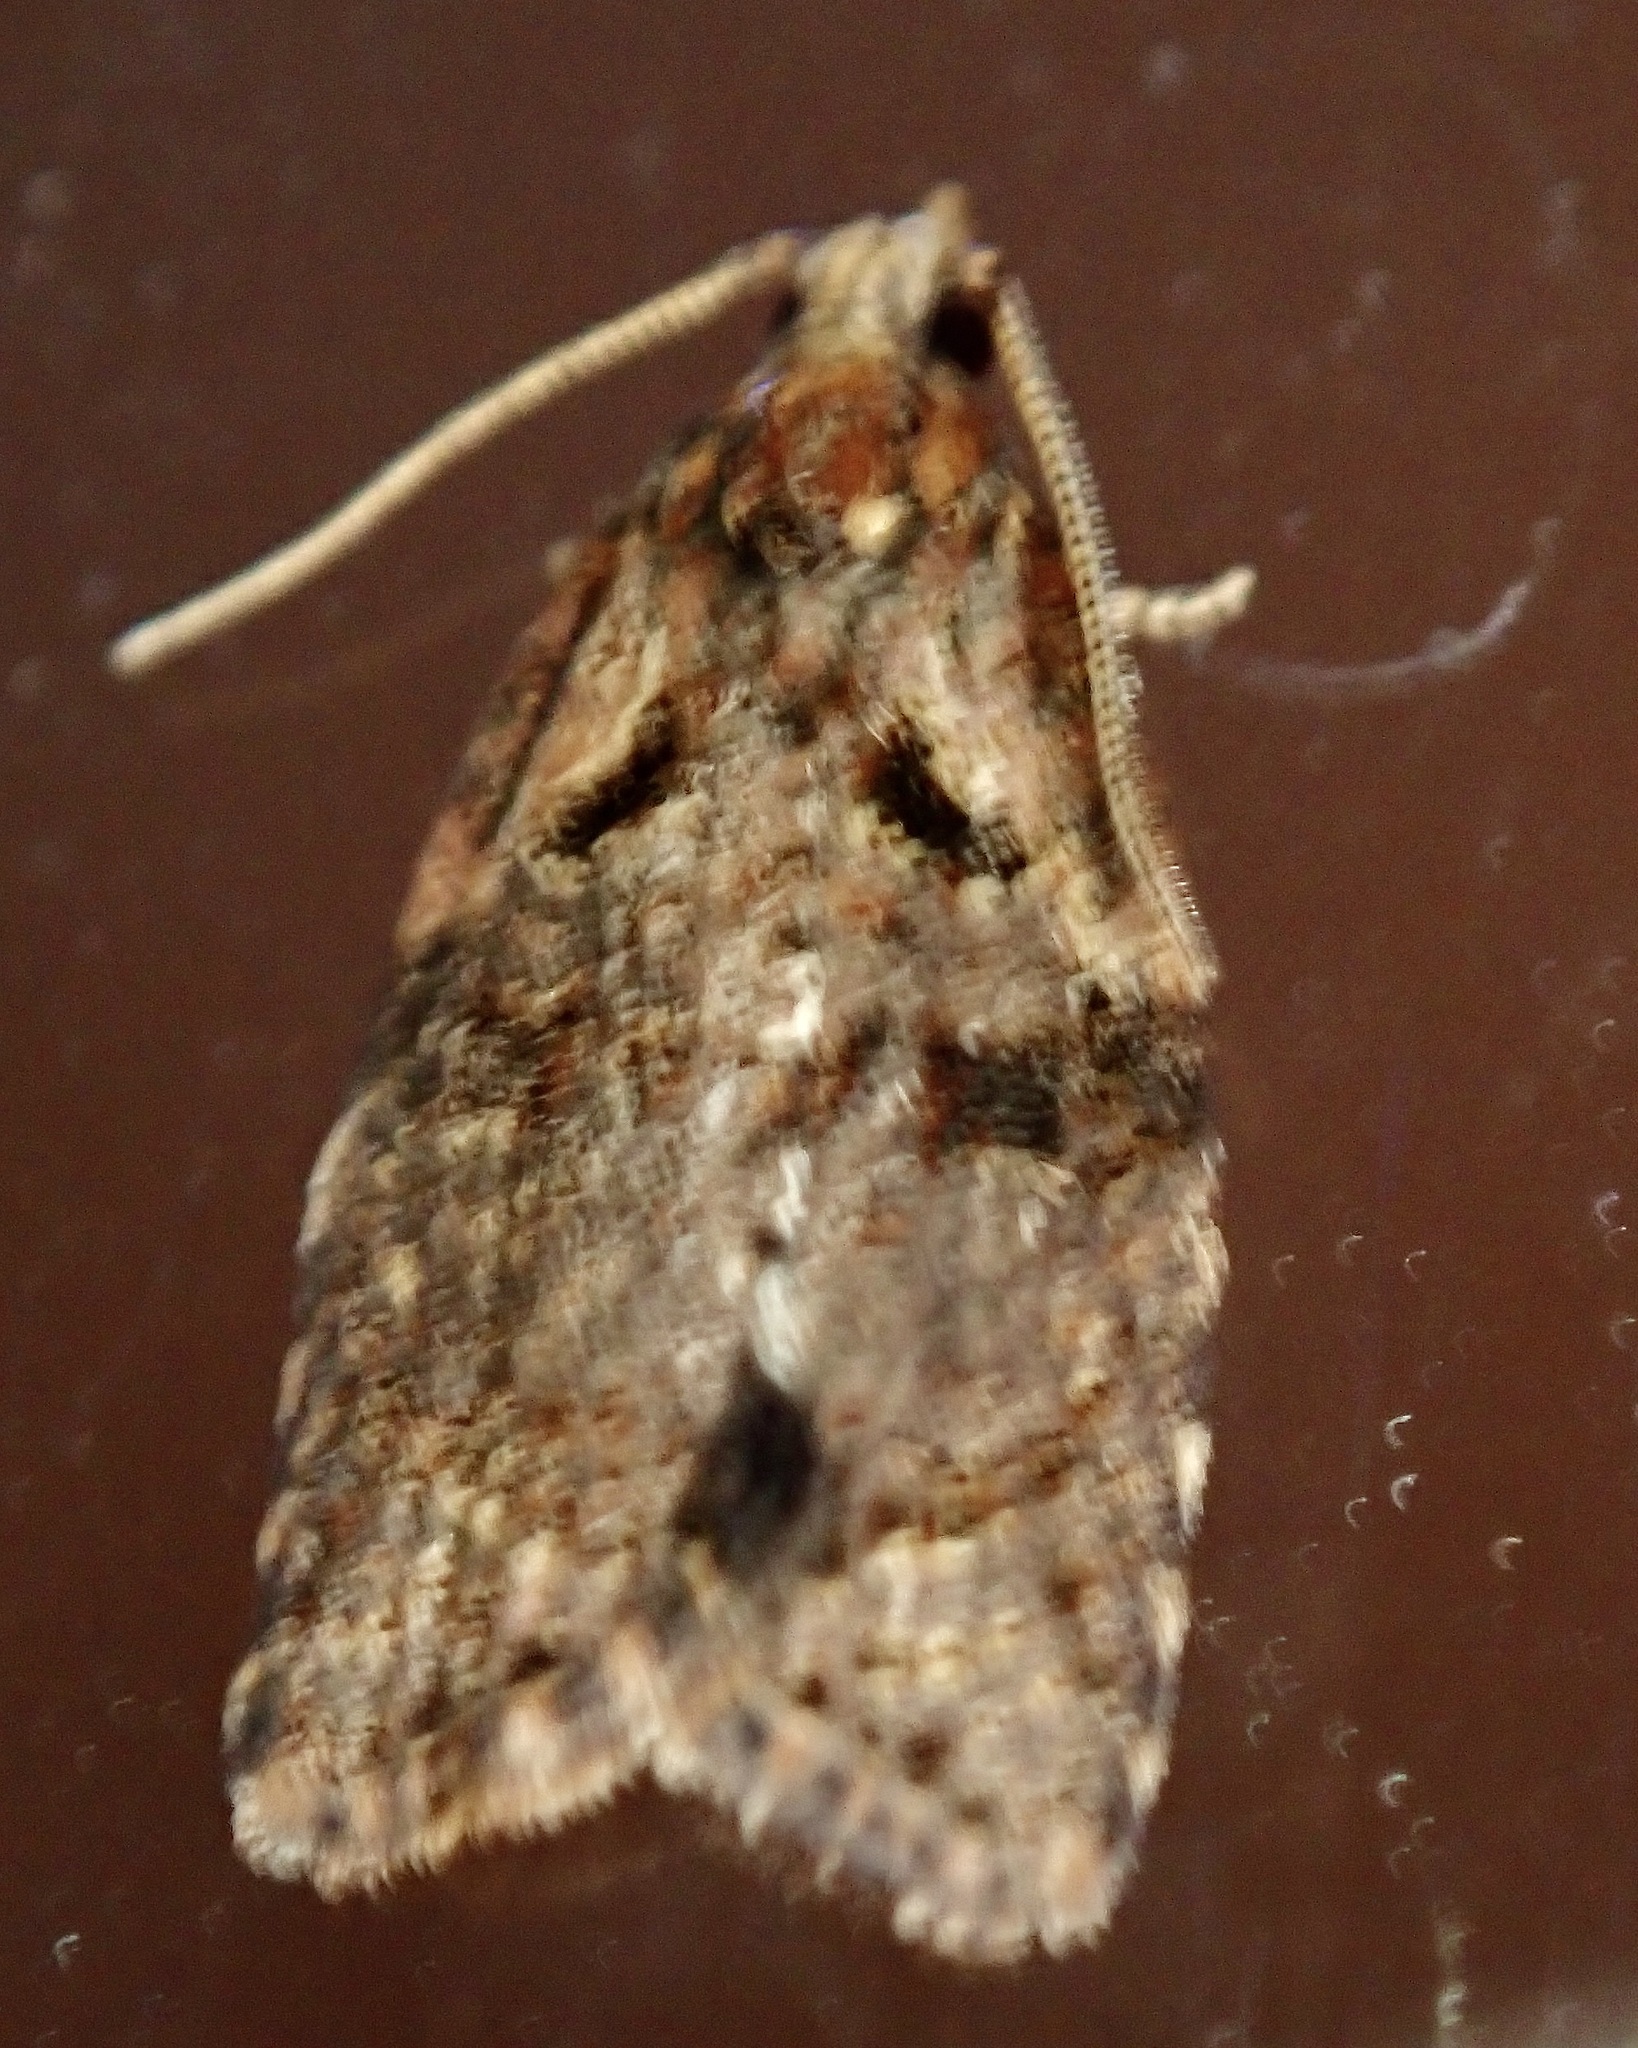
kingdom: Animalia
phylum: Arthropoda
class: Insecta
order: Lepidoptera
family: Tortricidae
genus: Capua
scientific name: Capua intractana
